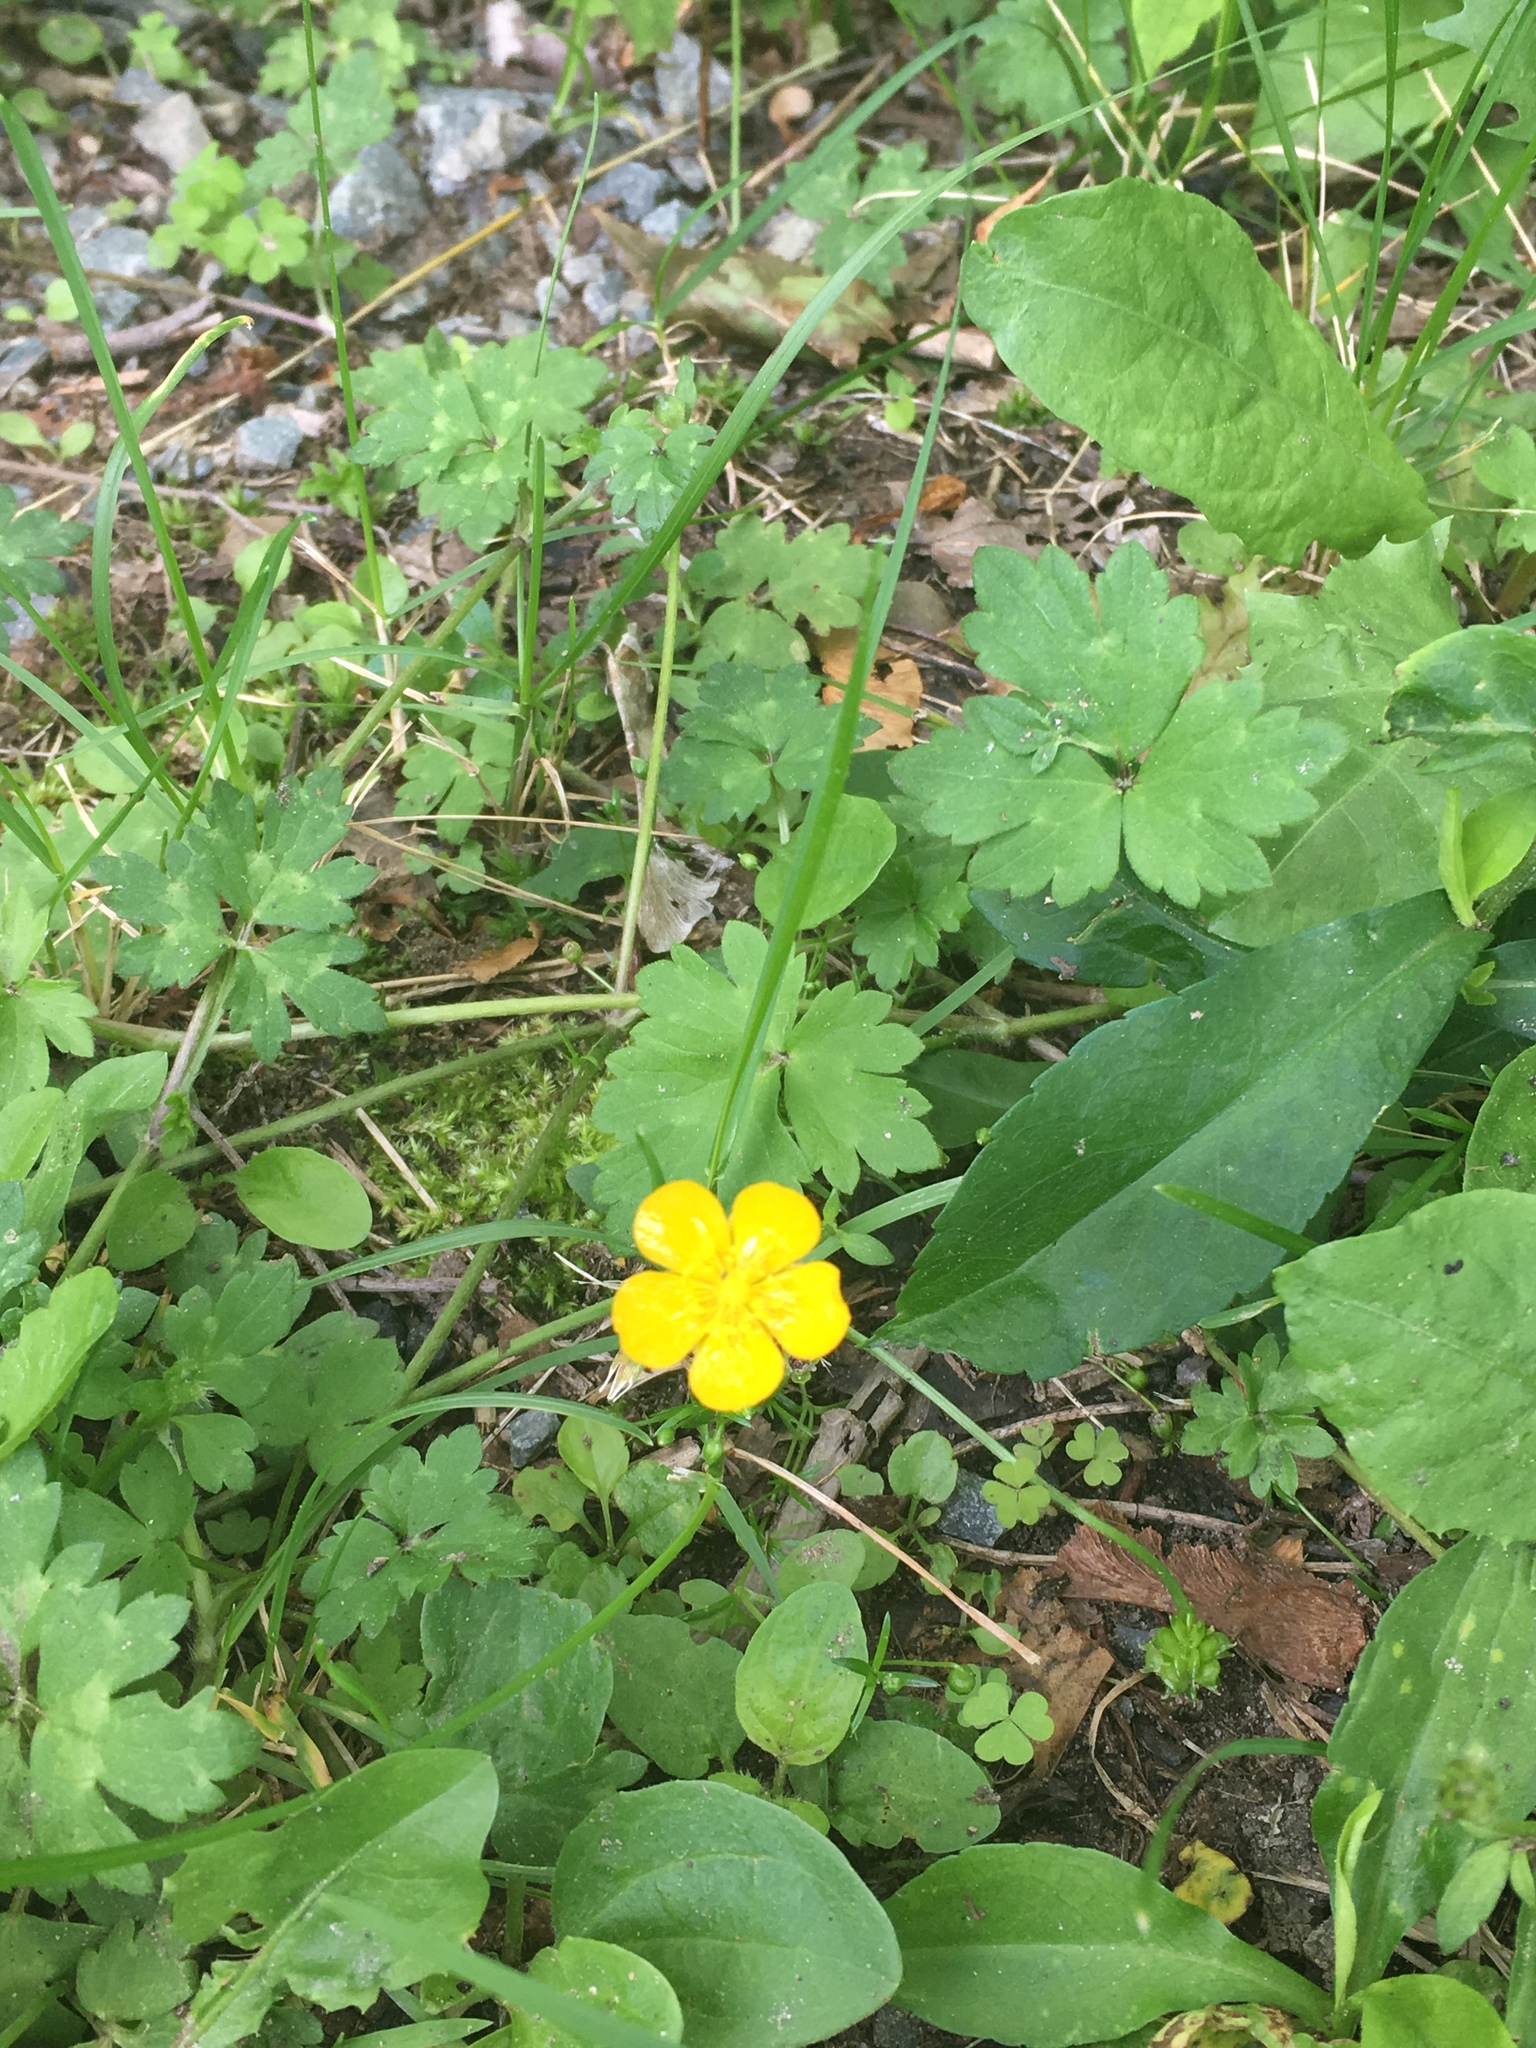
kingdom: Plantae
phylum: Tracheophyta
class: Magnoliopsida
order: Ranunculales
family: Ranunculaceae
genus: Ranunculus
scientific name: Ranunculus repens
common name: Creeping buttercup
